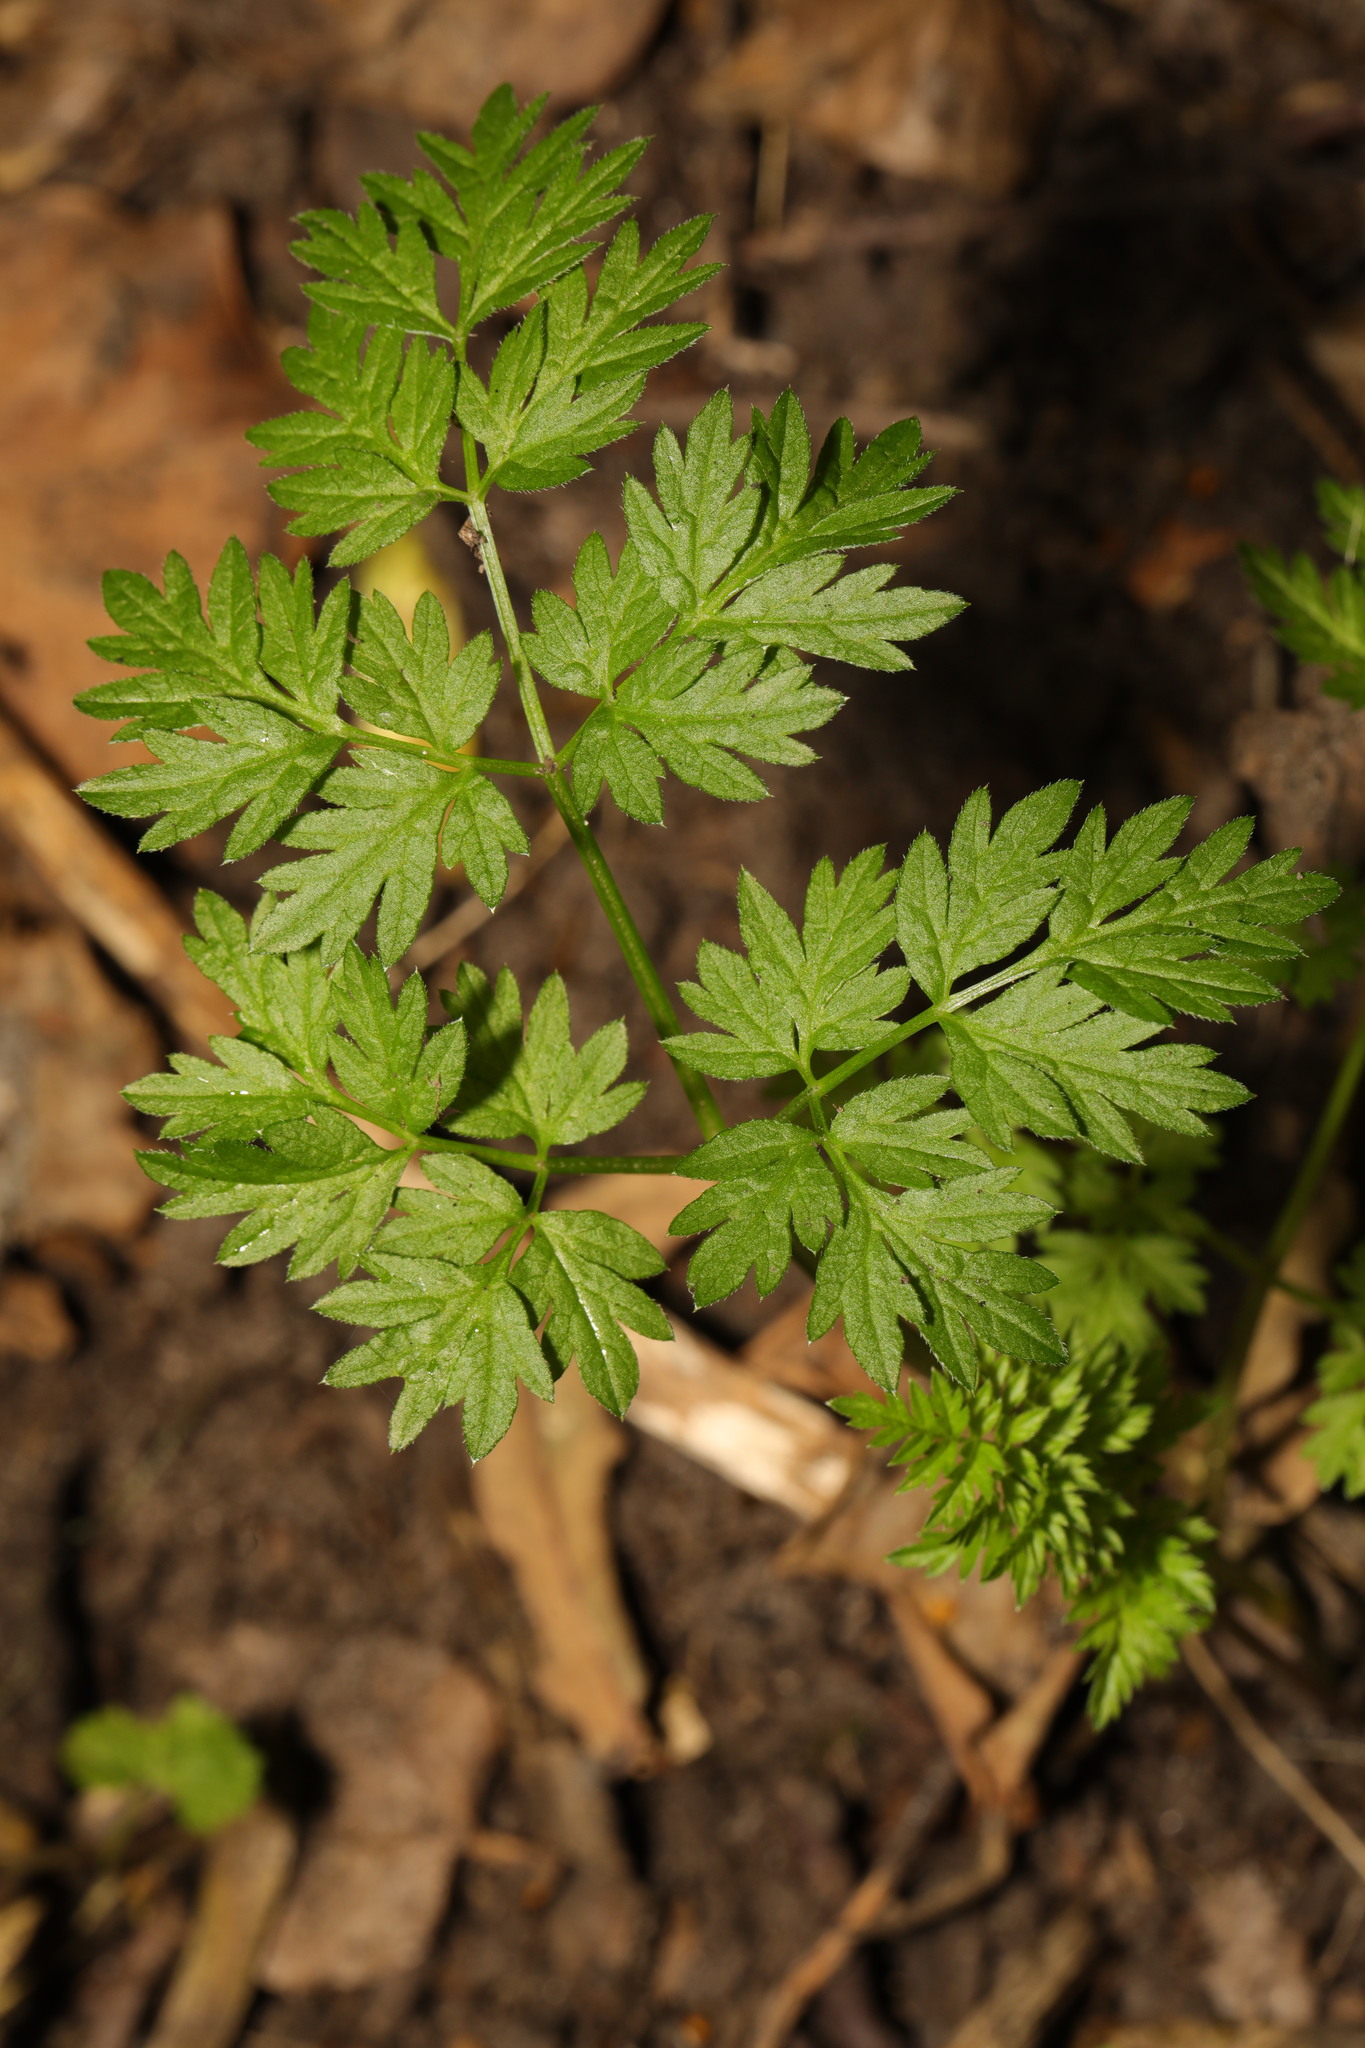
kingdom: Plantae
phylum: Tracheophyta
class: Magnoliopsida
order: Apiales
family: Apiaceae
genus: Anthriscus
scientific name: Anthriscus sylvestris
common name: Cow parsley
